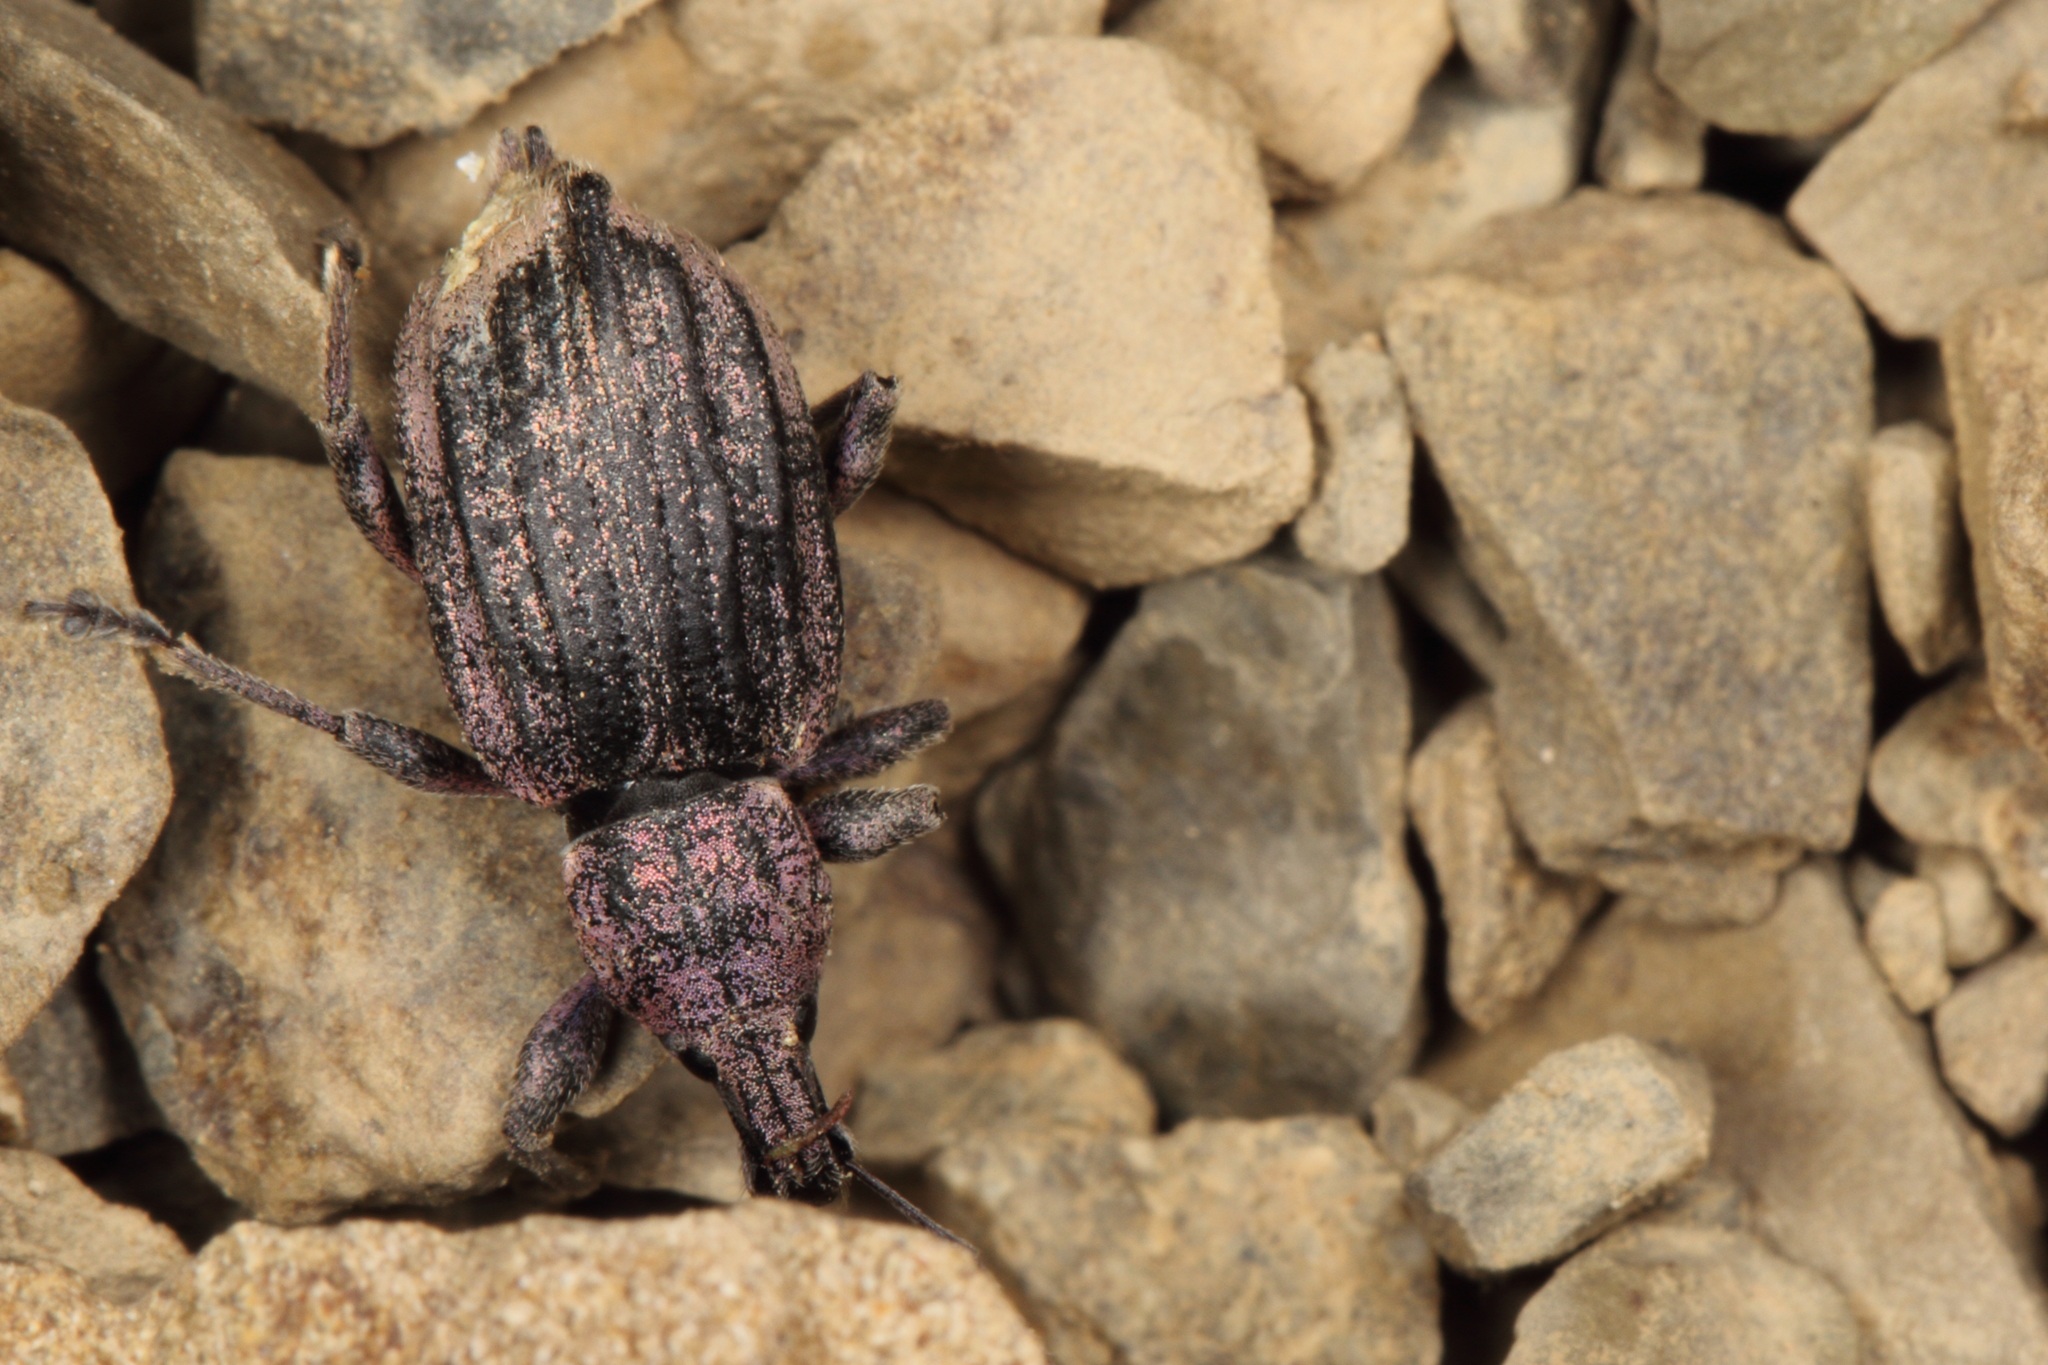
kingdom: Animalia
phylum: Arthropoda
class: Insecta
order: Coleoptera
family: Curculionidae
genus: Chalepistes
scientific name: Chalepistes pensus
